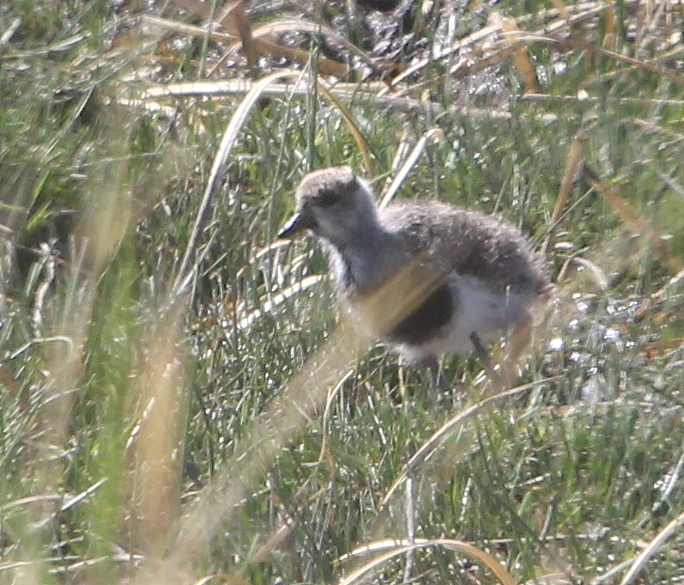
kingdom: Animalia
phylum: Chordata
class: Aves
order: Charadriiformes
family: Charadriidae
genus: Vanellus
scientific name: Vanellus chilensis
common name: Southern lapwing
